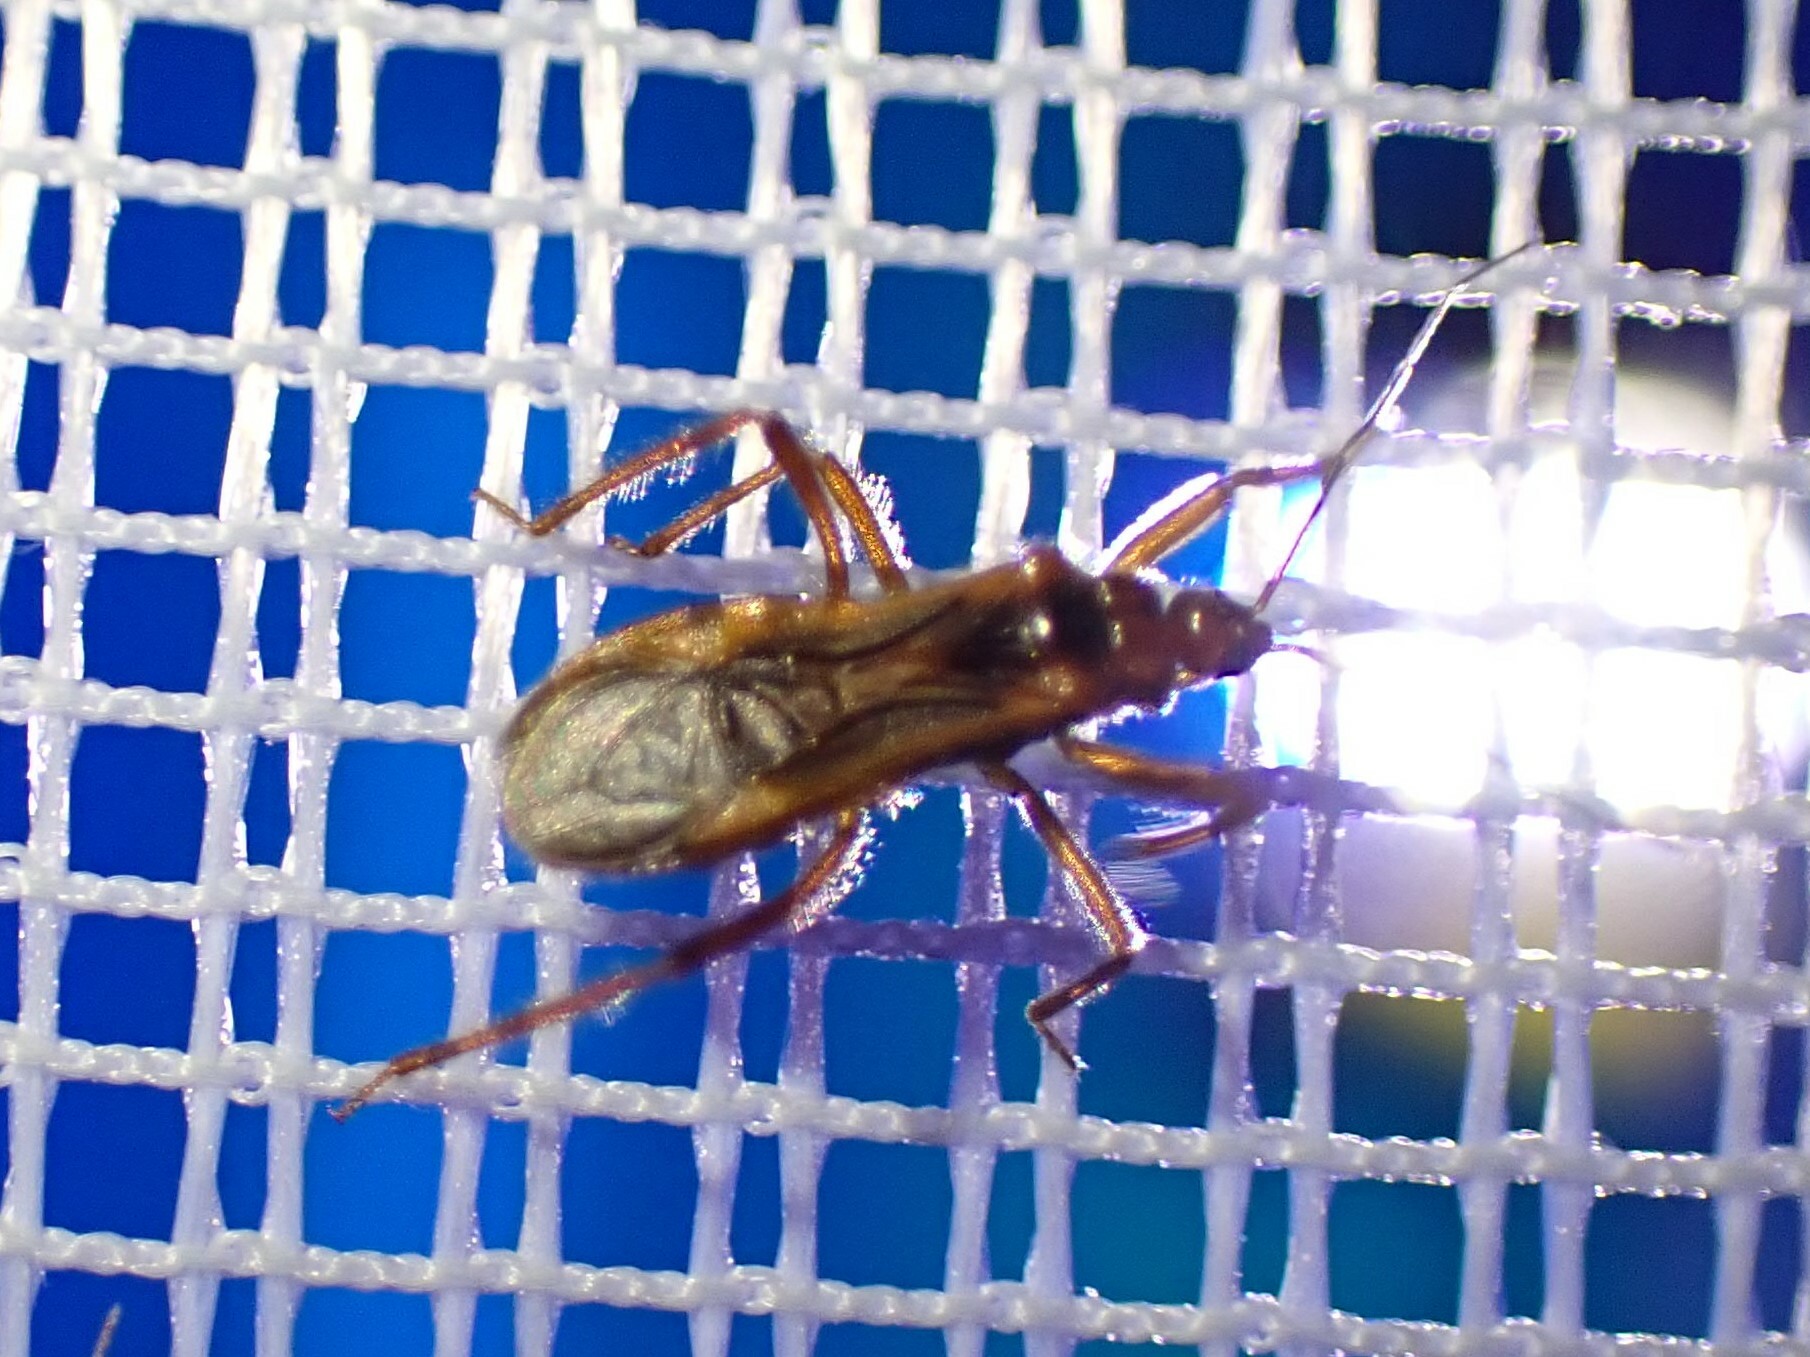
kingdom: Animalia
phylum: Arthropoda
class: Insecta
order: Hemiptera
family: Reduviidae
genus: Oncerotrachelus
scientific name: Oncerotrachelus acuminatus
